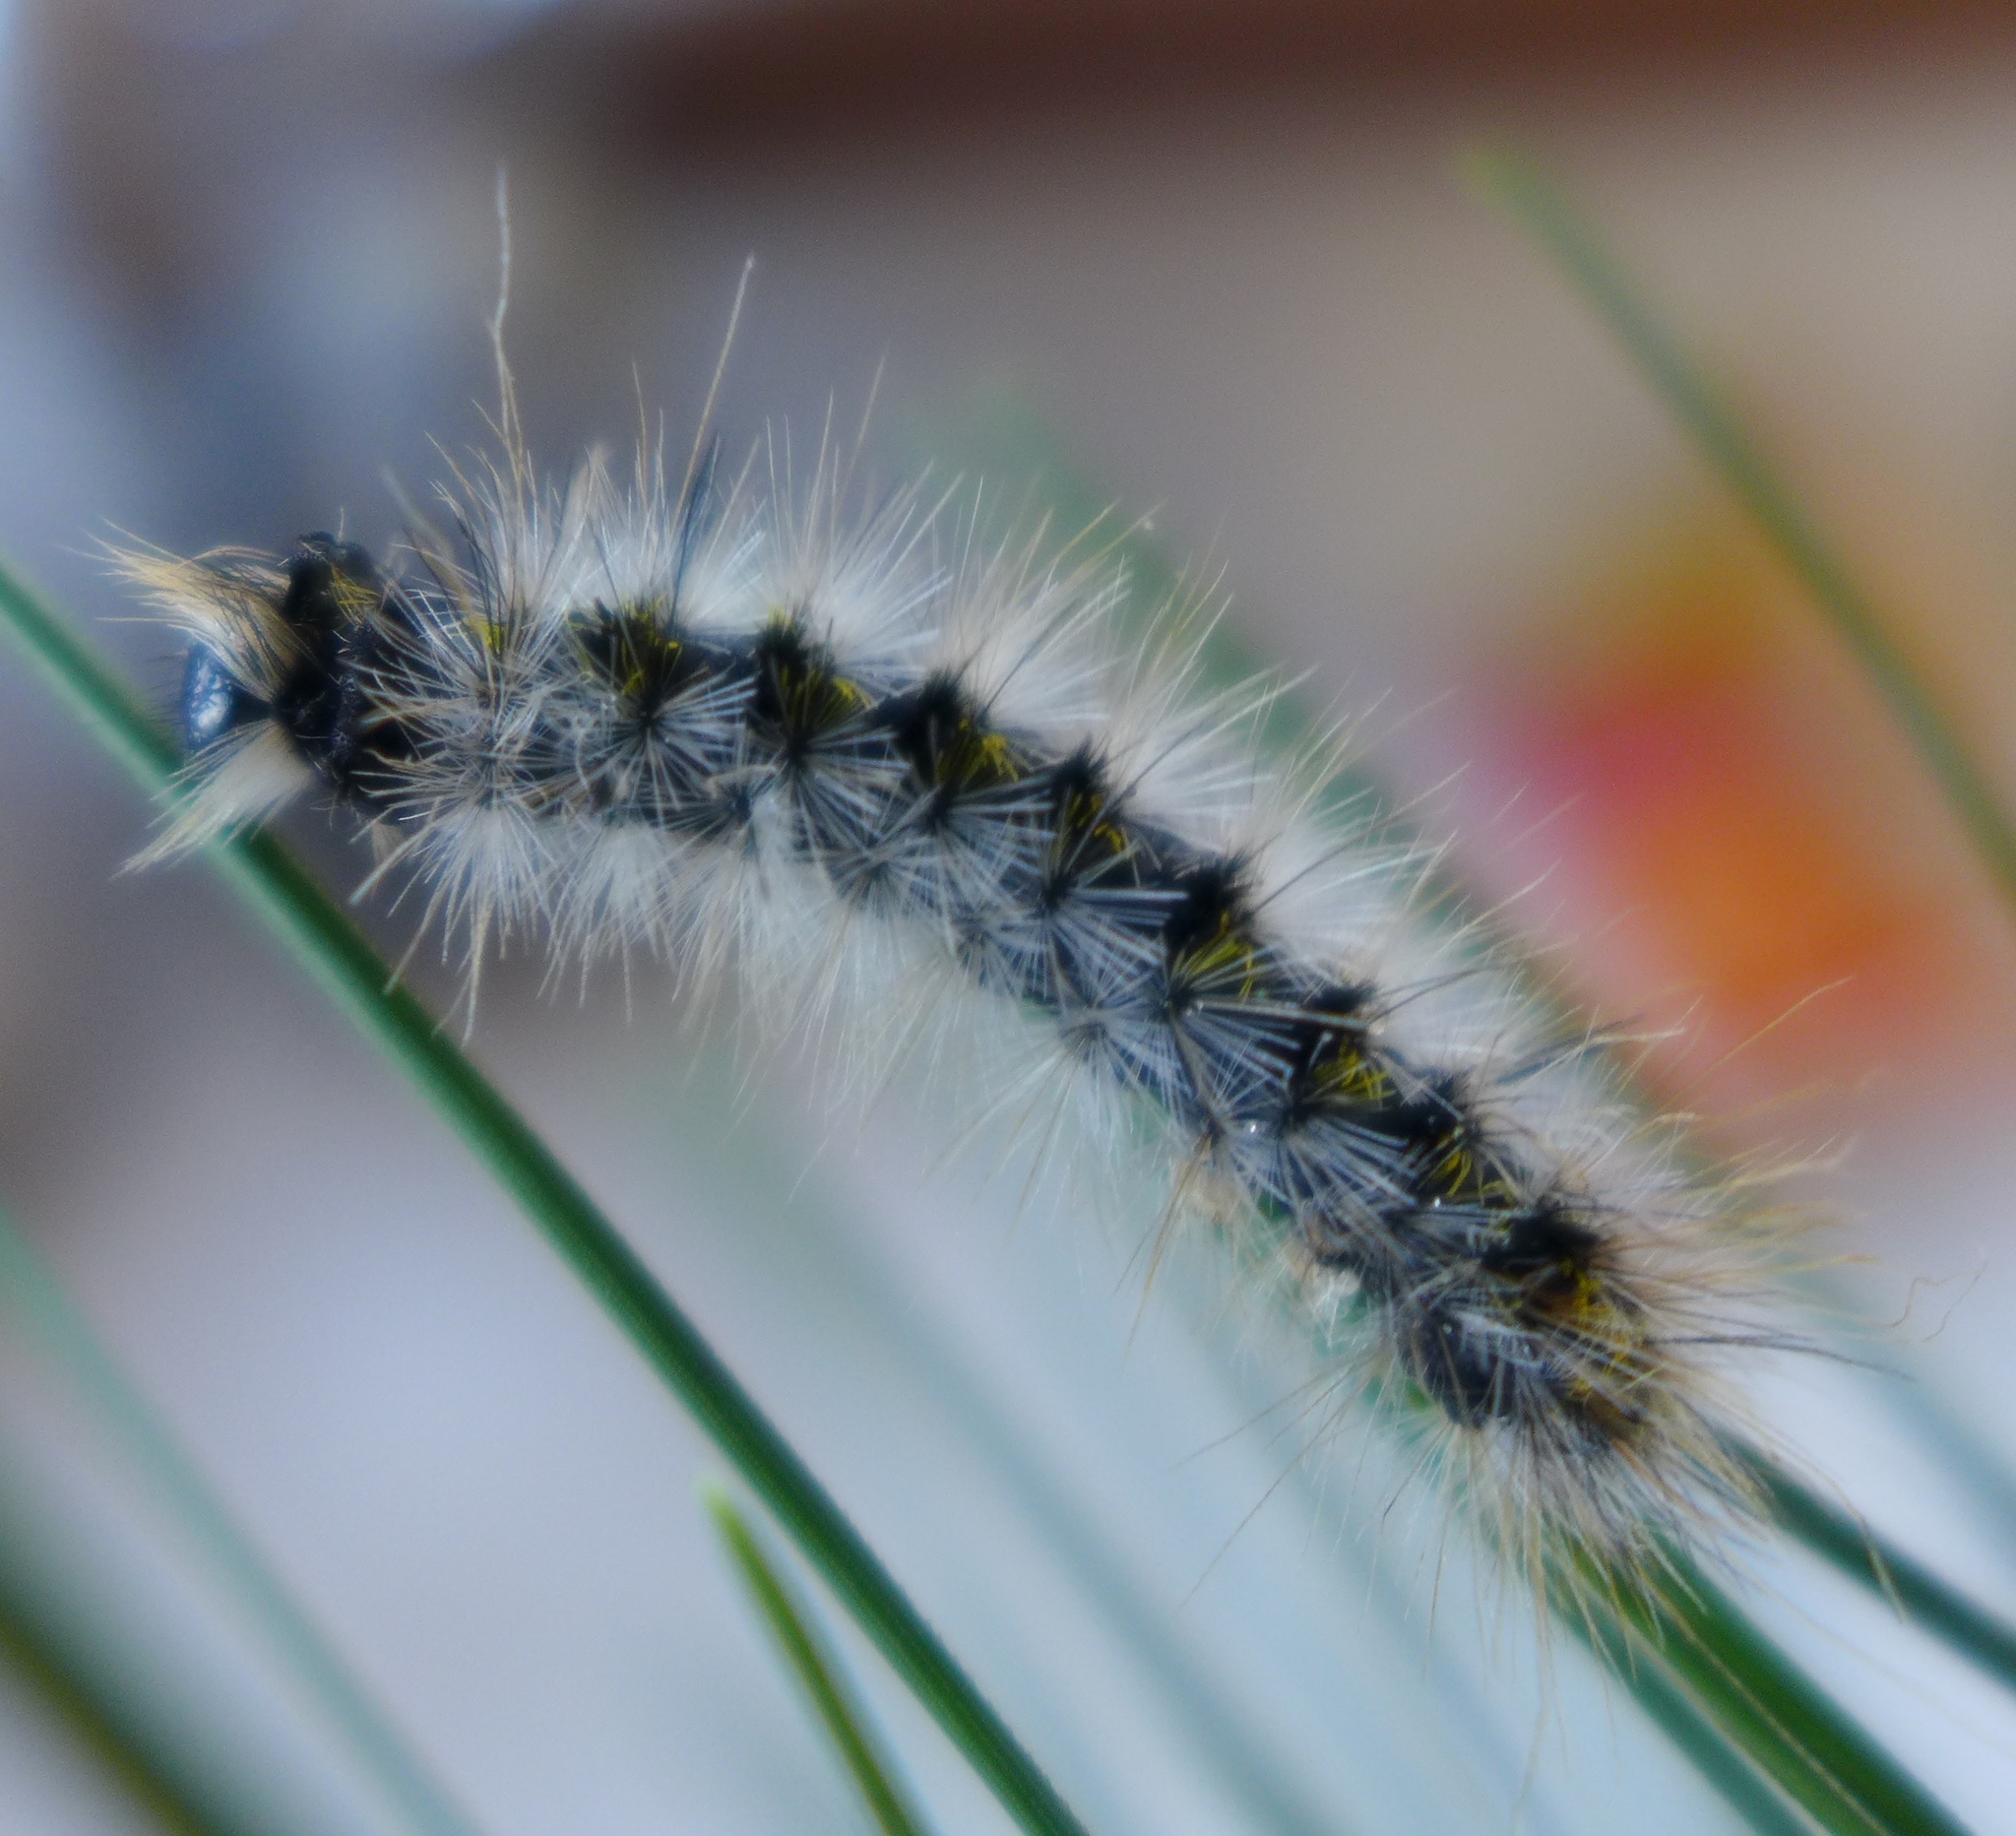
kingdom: Animalia
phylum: Arthropoda
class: Insecta
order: Lepidoptera
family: Erebidae
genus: Lophocampa
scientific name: Lophocampa sobrina
